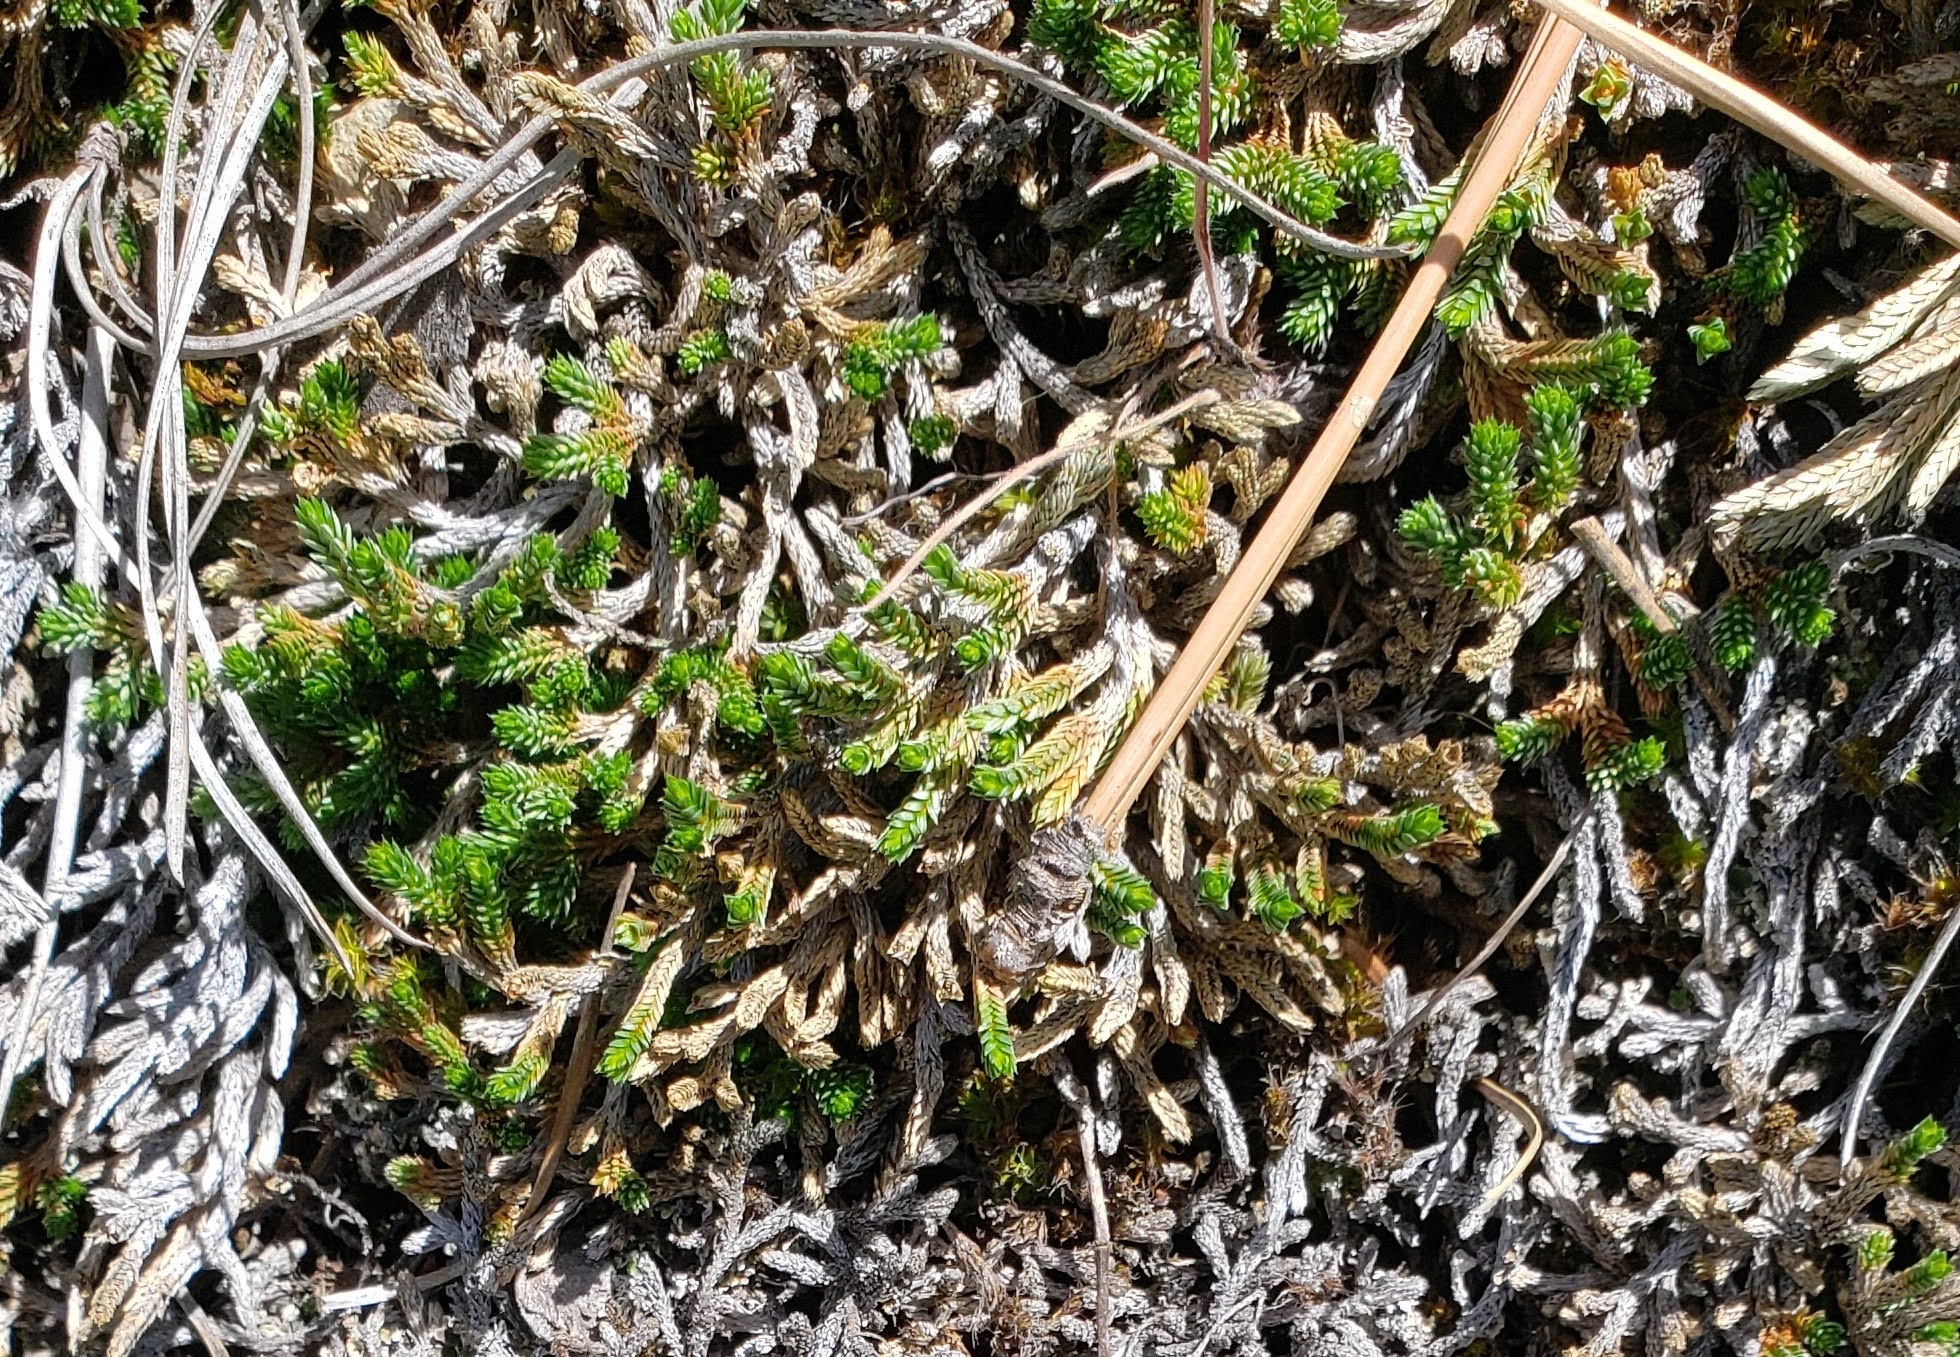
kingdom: Plantae
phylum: Tracheophyta
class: Lycopodiopsida
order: Selaginellales
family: Selaginellaceae
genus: Selaginella
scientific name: Selaginella wallacei
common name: Wallace's selaginella
